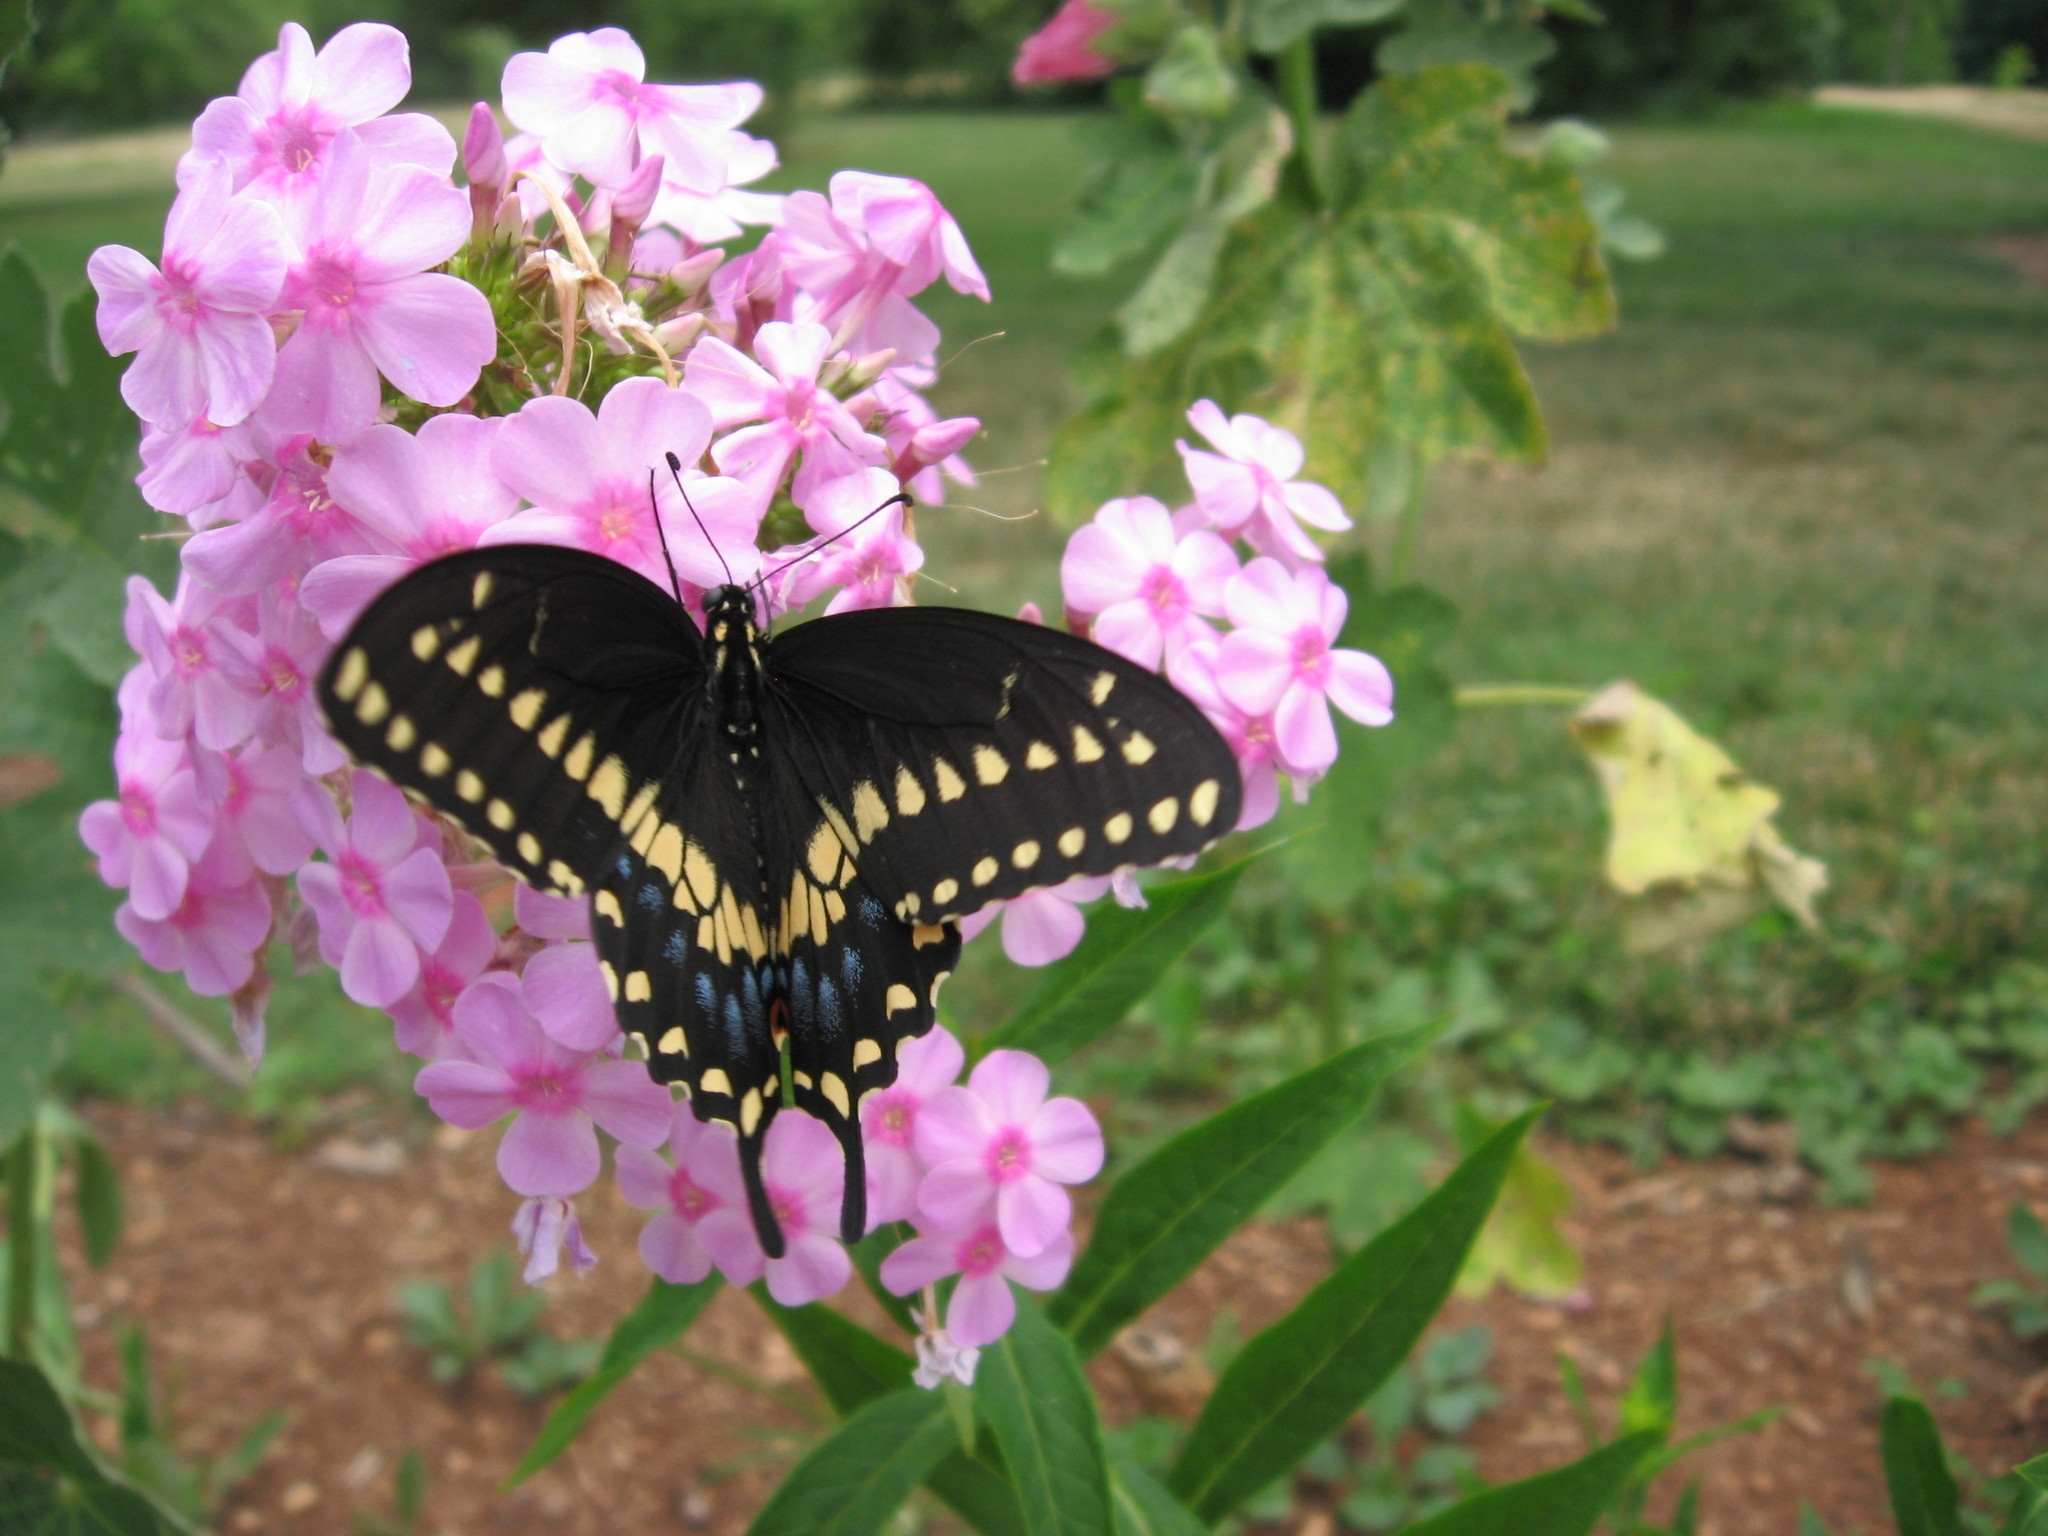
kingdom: Animalia
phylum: Arthropoda
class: Insecta
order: Lepidoptera
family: Papilionidae
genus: Papilio
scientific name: Papilio polyxenes
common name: Black swallowtail
